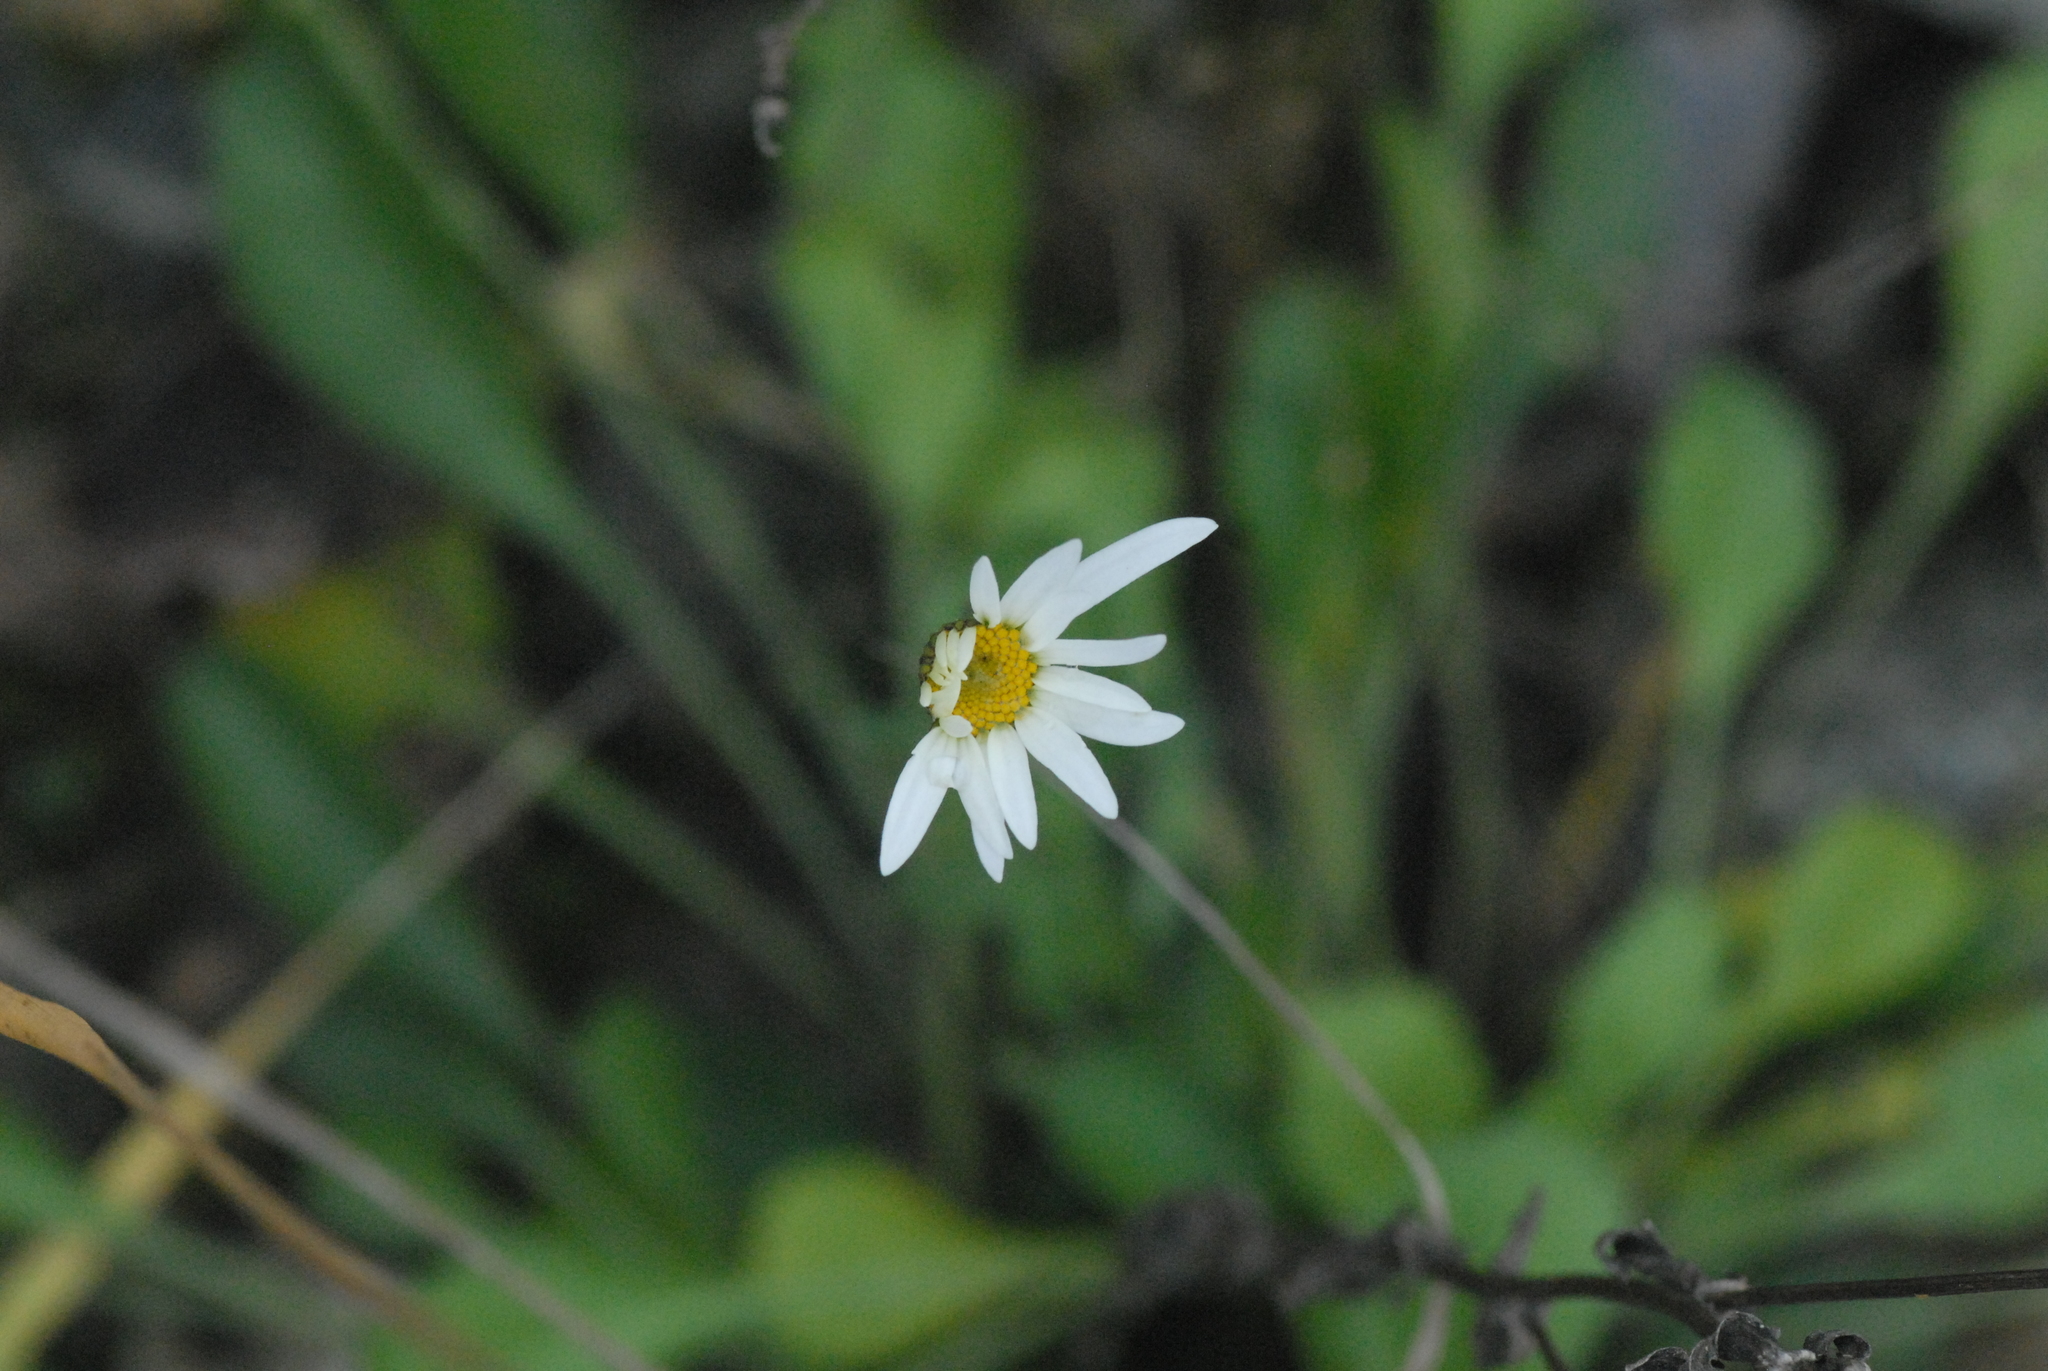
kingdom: Plantae
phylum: Tracheophyta
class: Magnoliopsida
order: Asterales
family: Asteraceae
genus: Leucanthemum
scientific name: Leucanthemum vulgare
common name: Oxeye daisy
